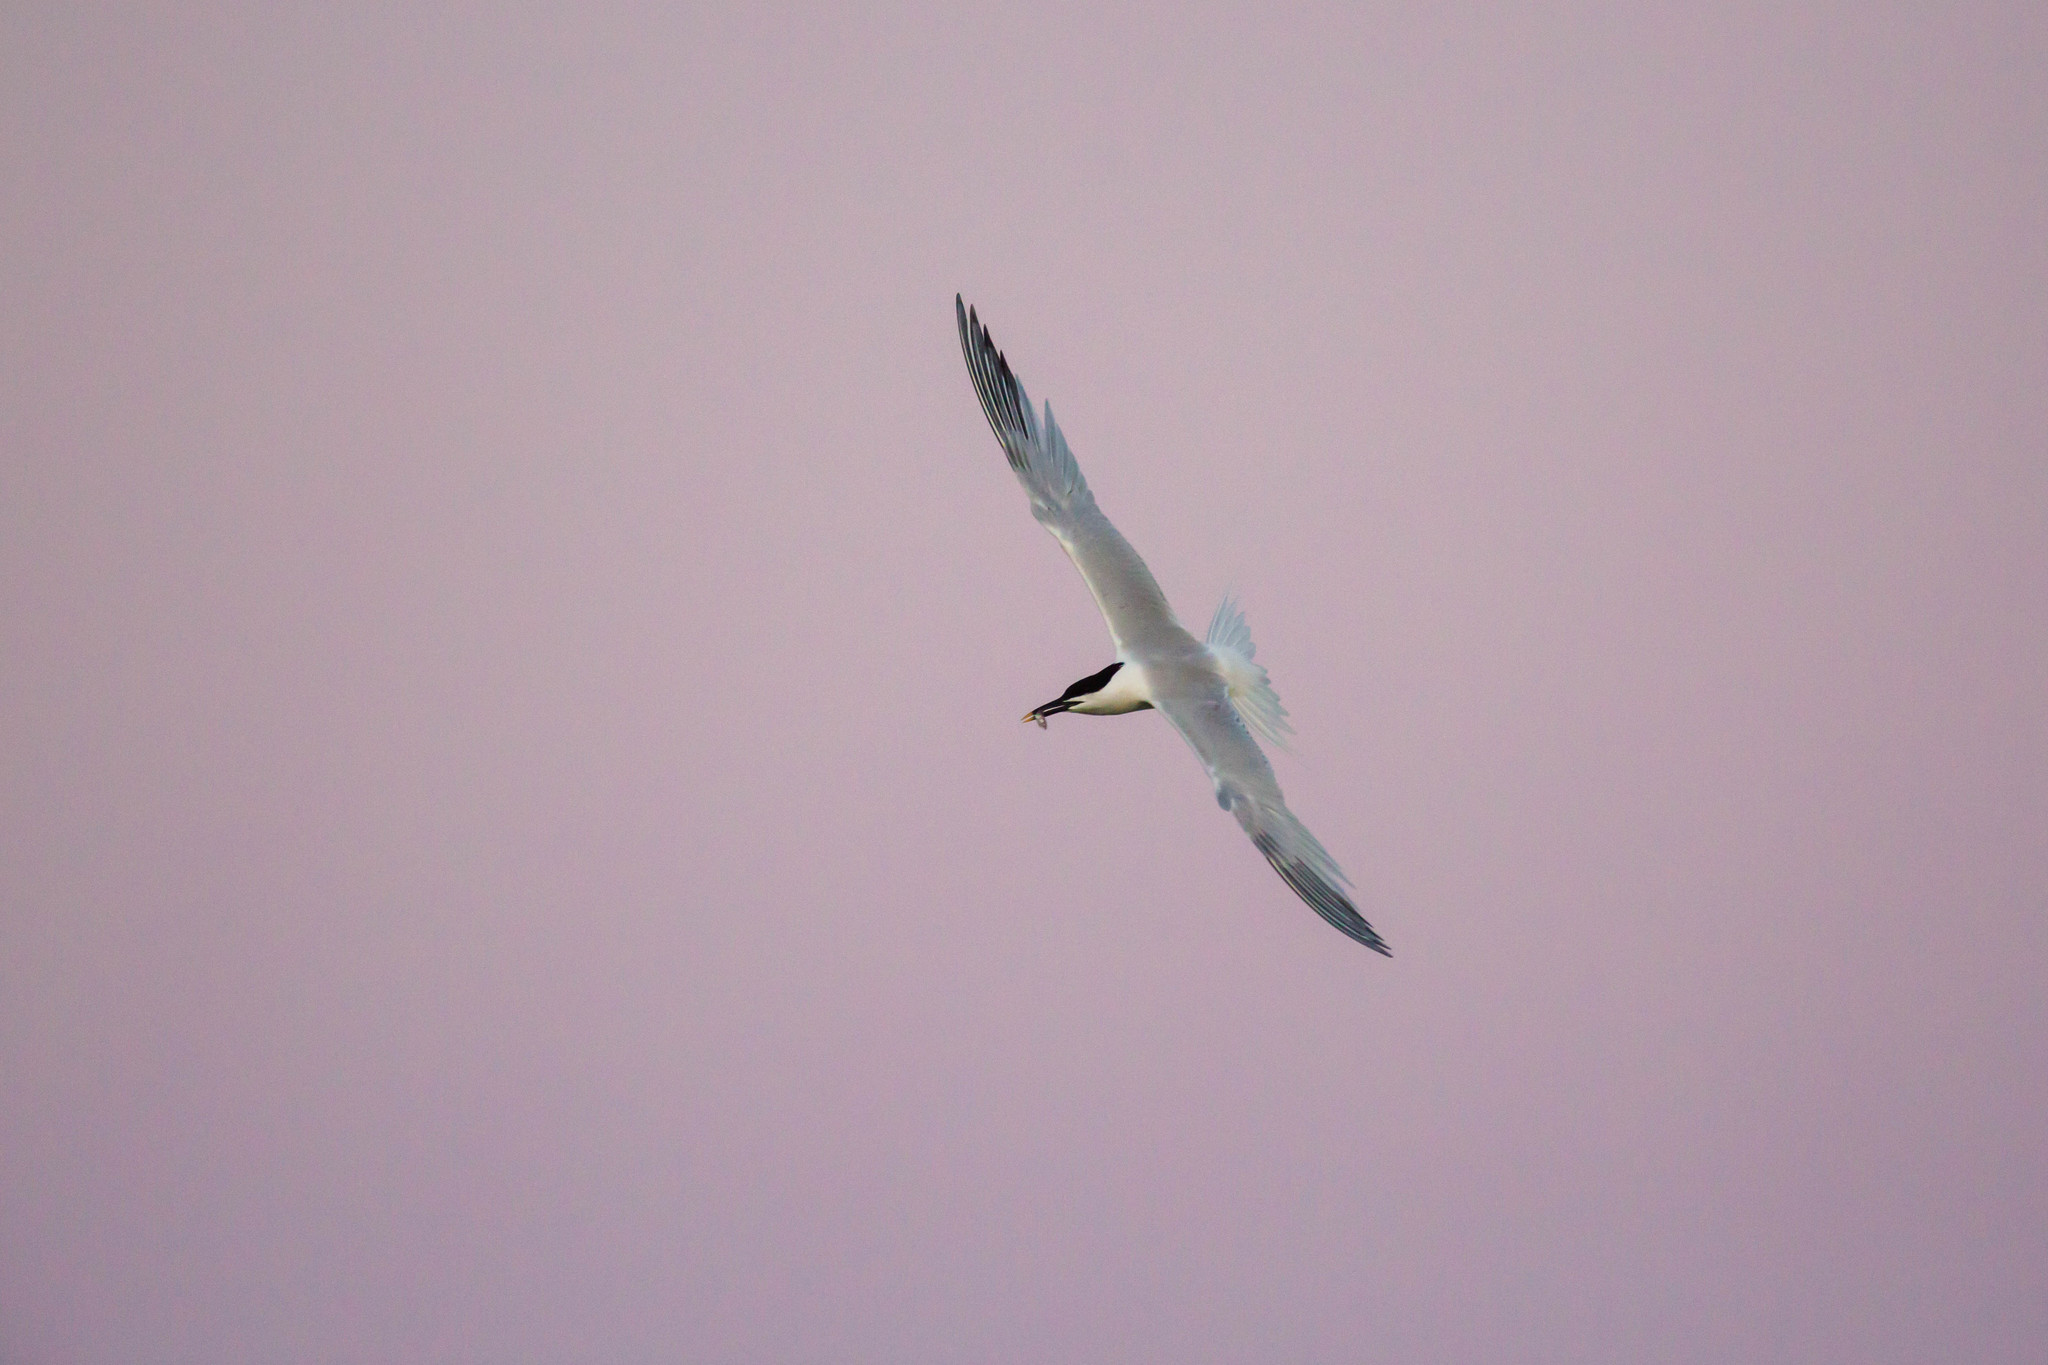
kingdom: Animalia
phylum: Chordata
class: Aves
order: Charadriiformes
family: Laridae
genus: Thalasseus
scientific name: Thalasseus sandvicensis
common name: Sandwich tern
